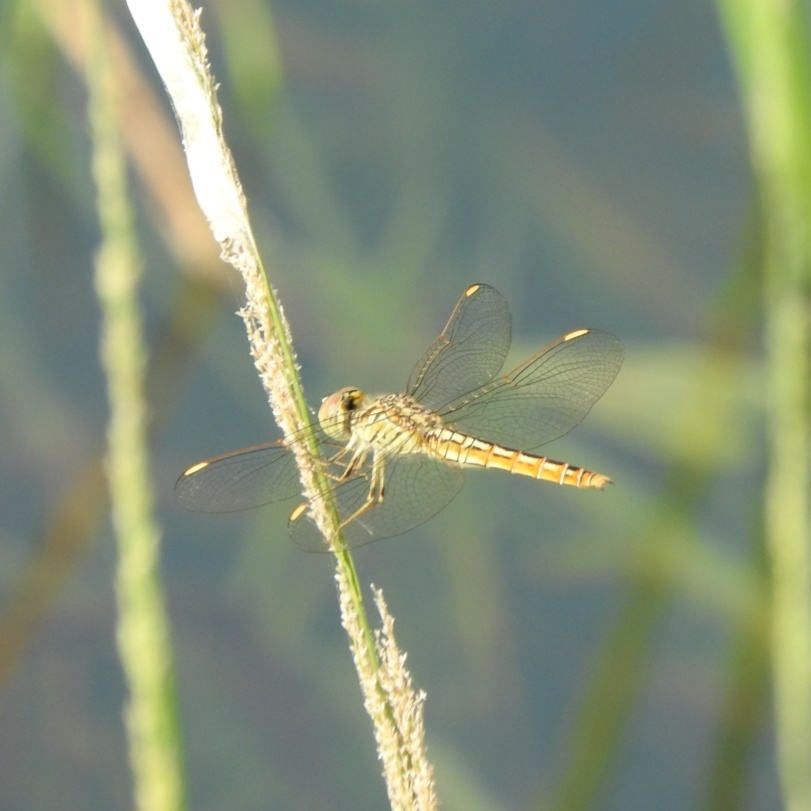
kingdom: Animalia
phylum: Arthropoda
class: Insecta
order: Odonata
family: Libellulidae
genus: Brachythemis
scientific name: Brachythemis contaminata
